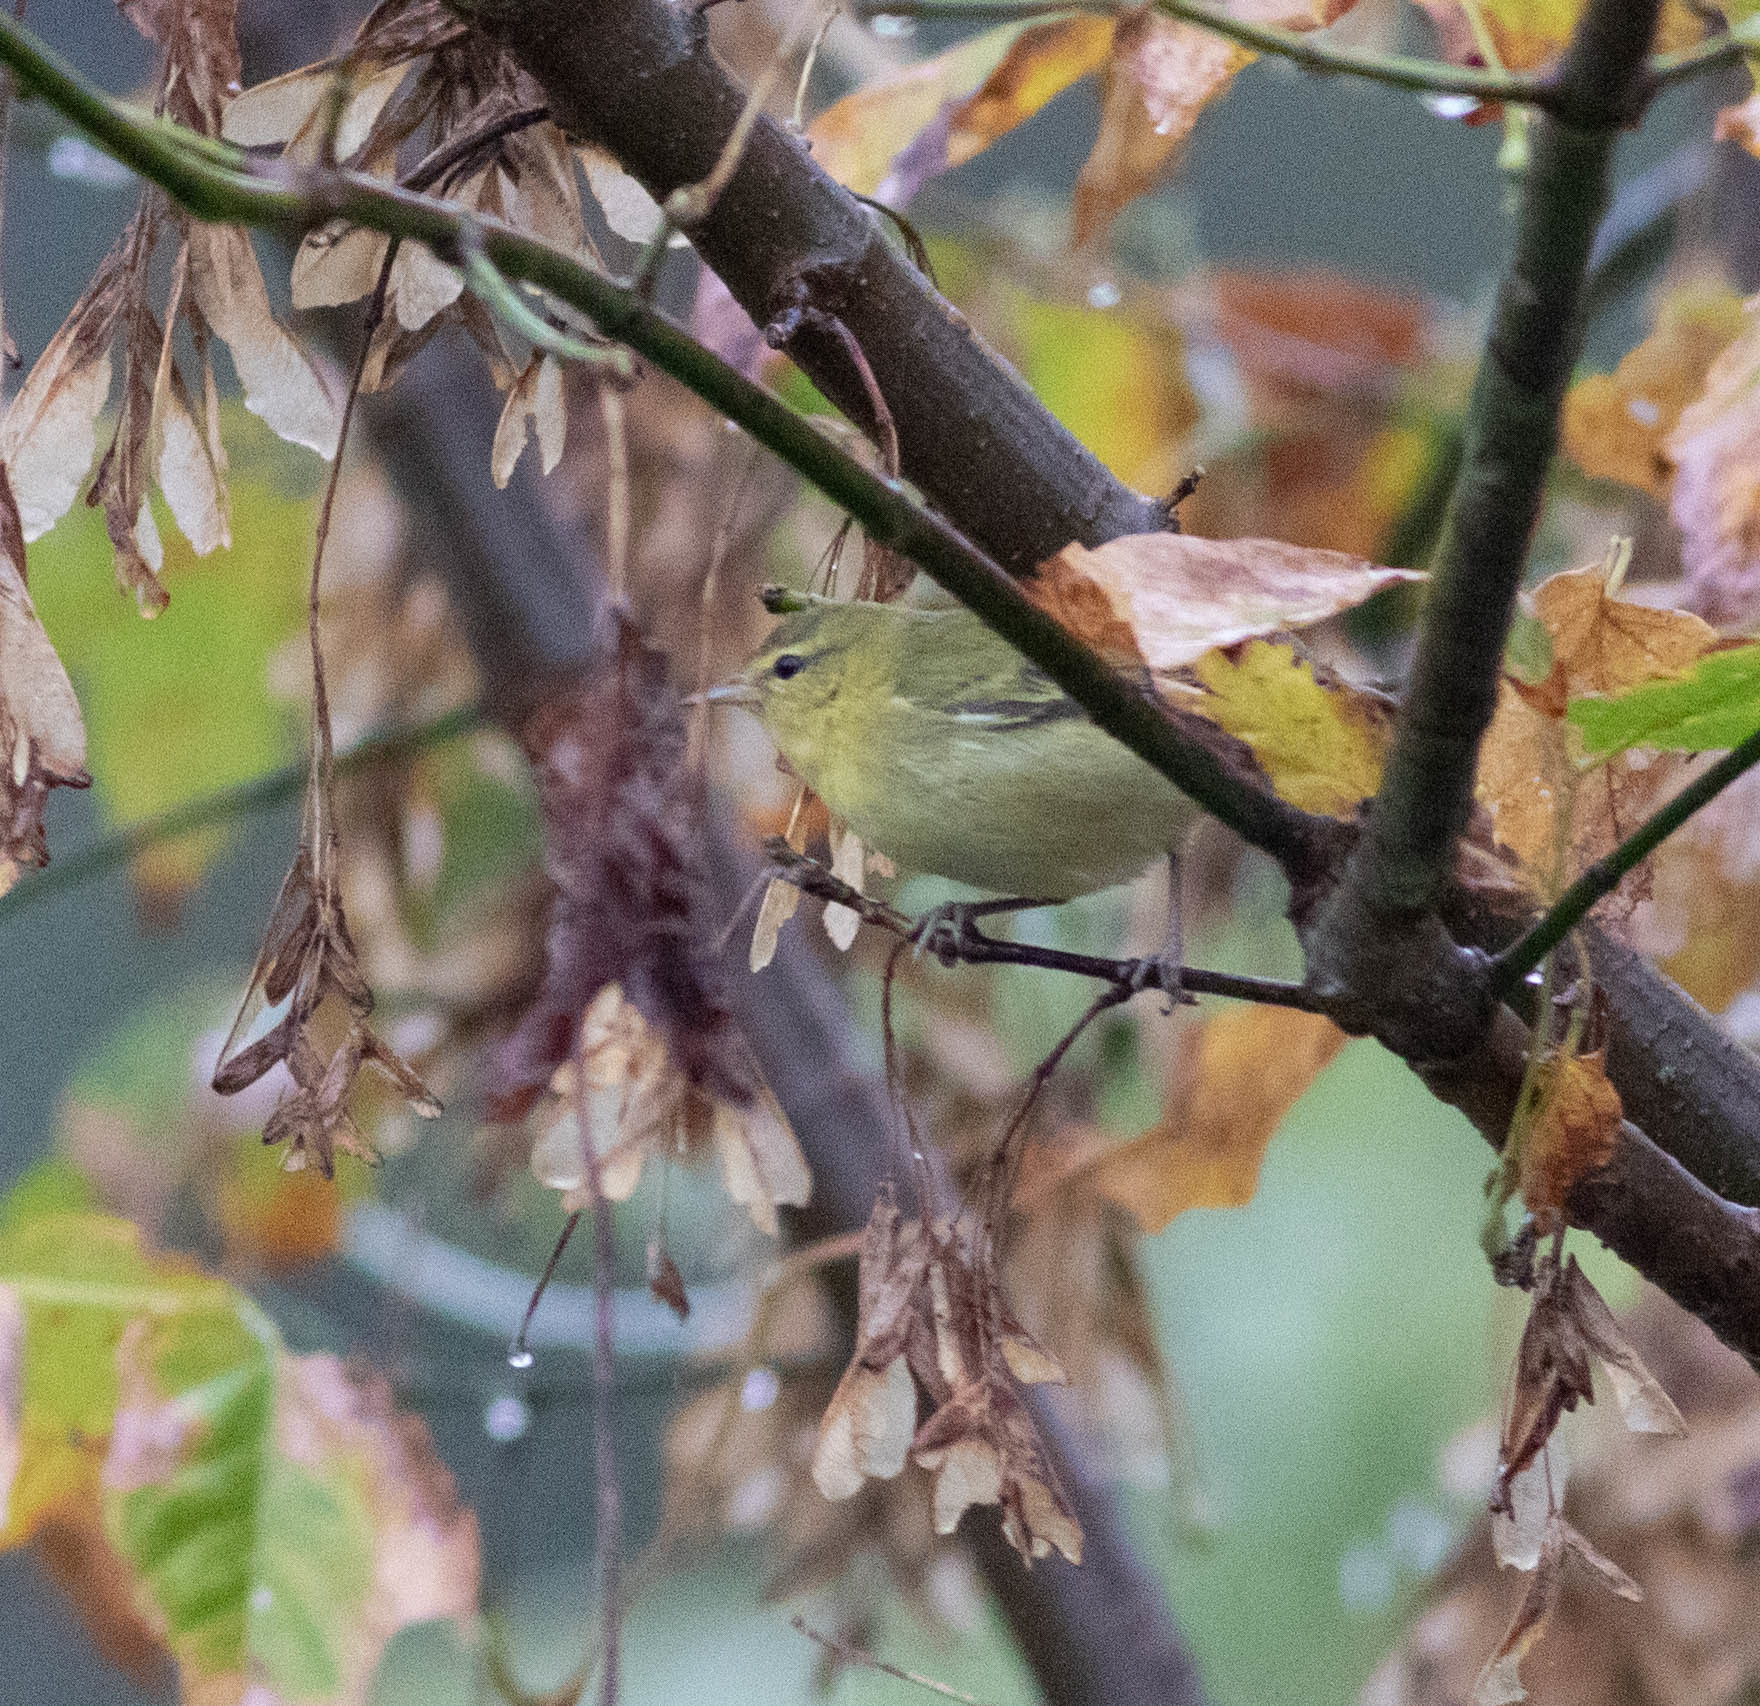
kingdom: Animalia
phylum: Chordata
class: Aves
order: Passeriformes
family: Parulidae
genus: Leiothlypis
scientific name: Leiothlypis peregrina
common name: Tennessee warbler
